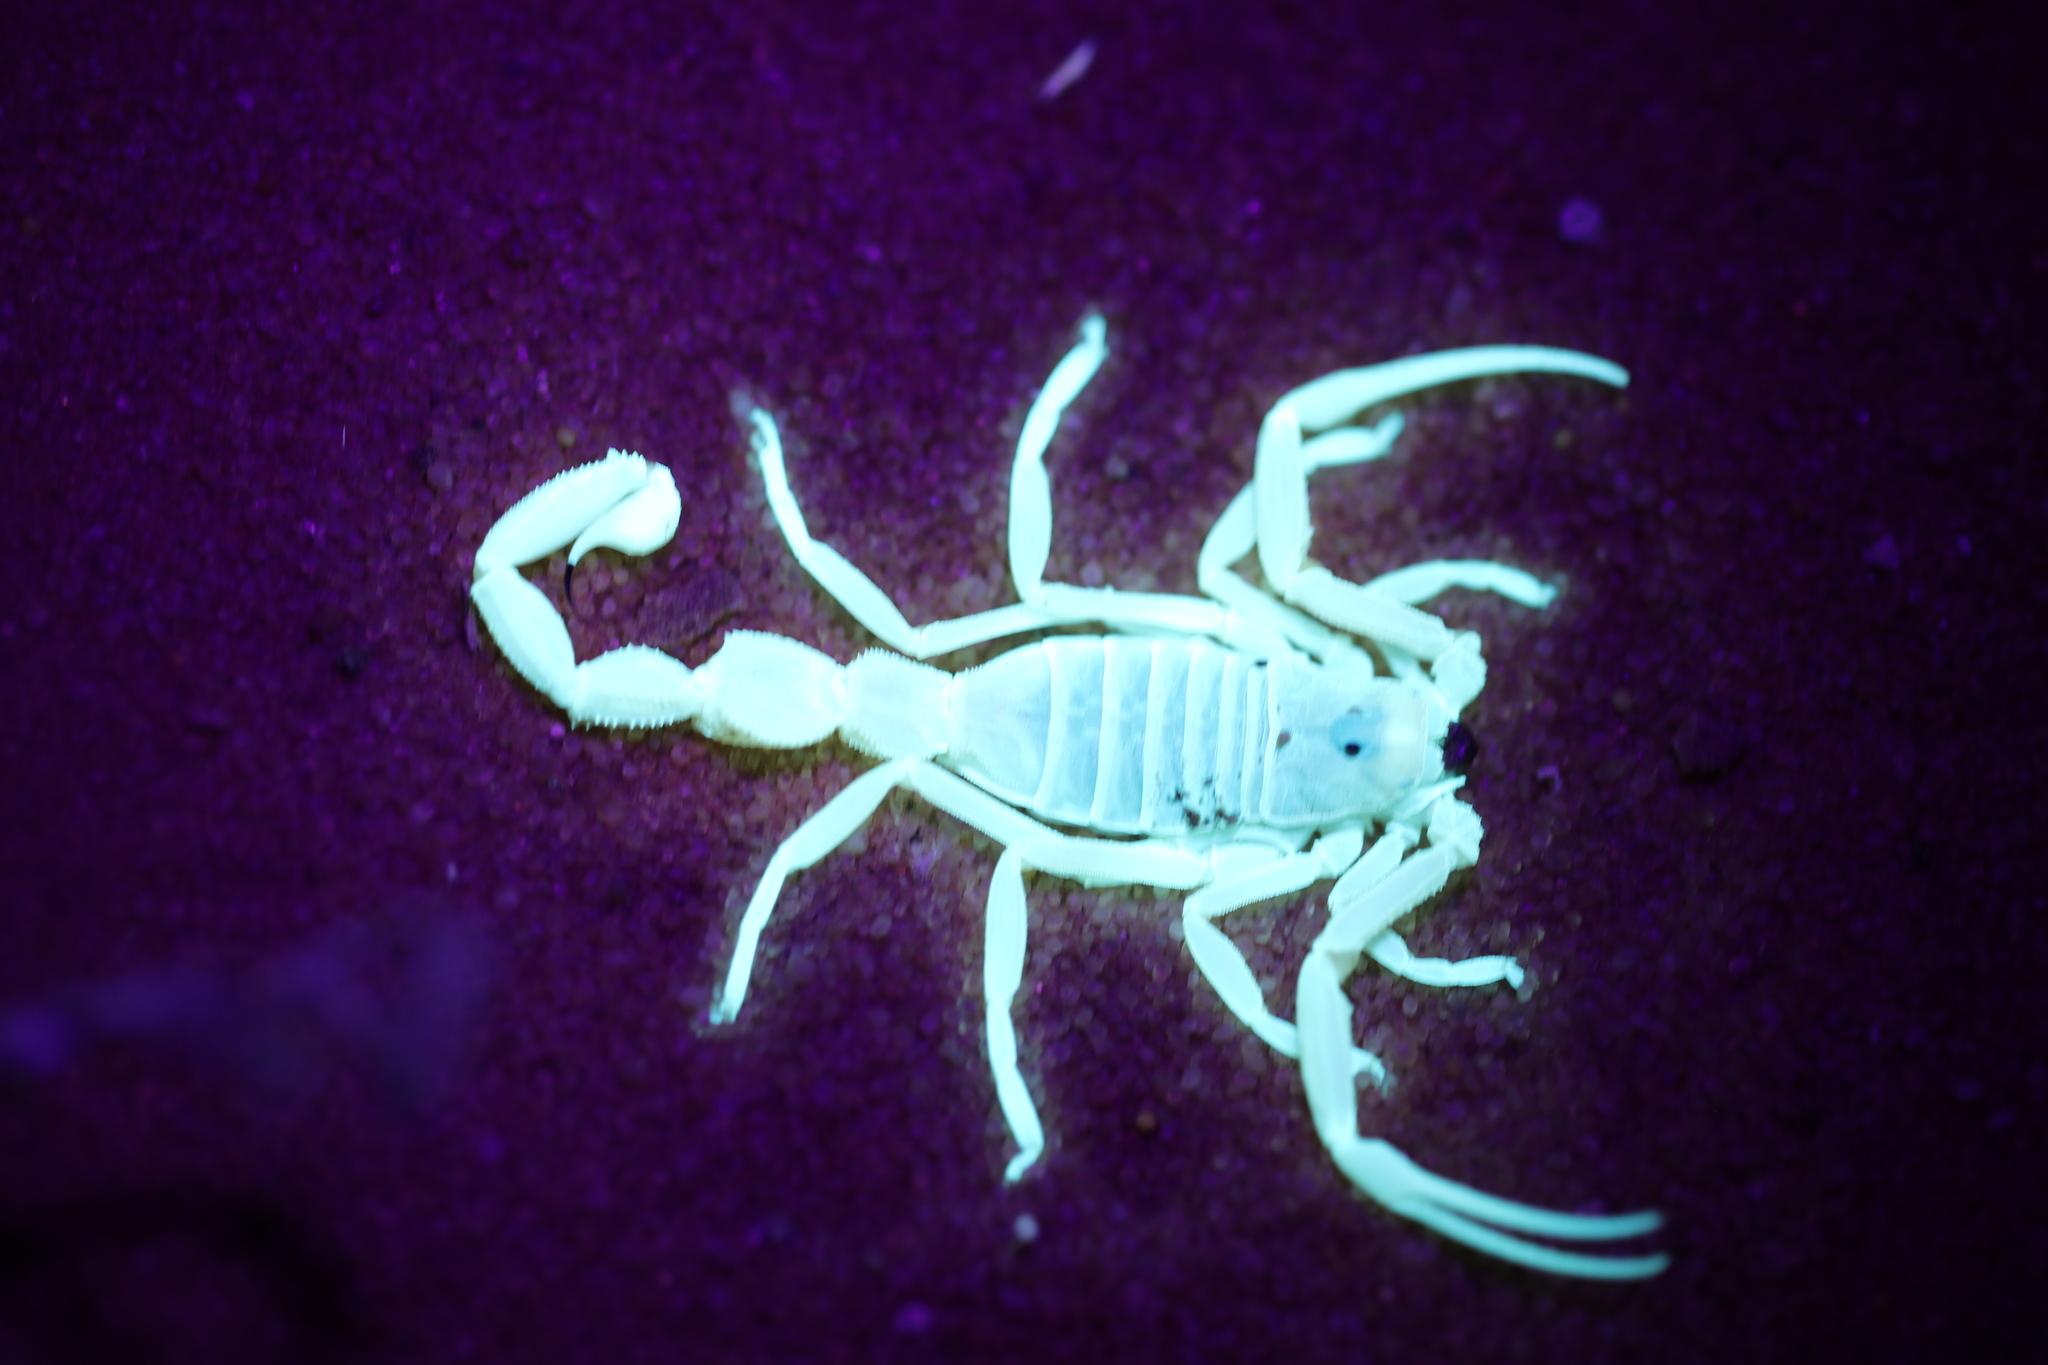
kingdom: Animalia
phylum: Arthropoda
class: Arachnida
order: Scorpiones
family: Buthidae
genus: Apistobuthus
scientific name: Apistobuthus pterygocercus
